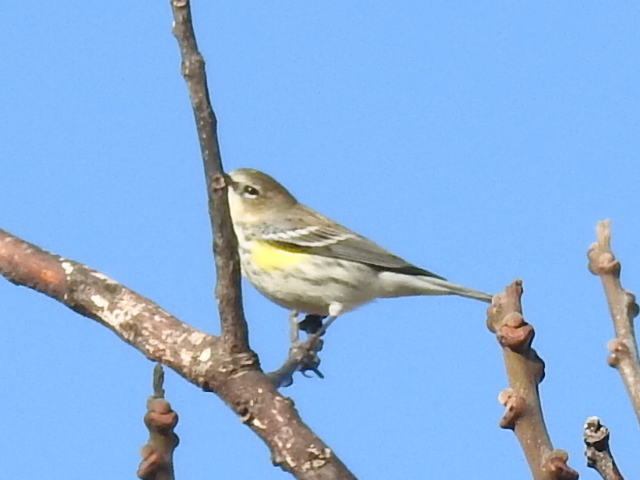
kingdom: Animalia
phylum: Chordata
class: Aves
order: Passeriformes
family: Parulidae
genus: Setophaga
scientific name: Setophaga coronata
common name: Myrtle warbler
